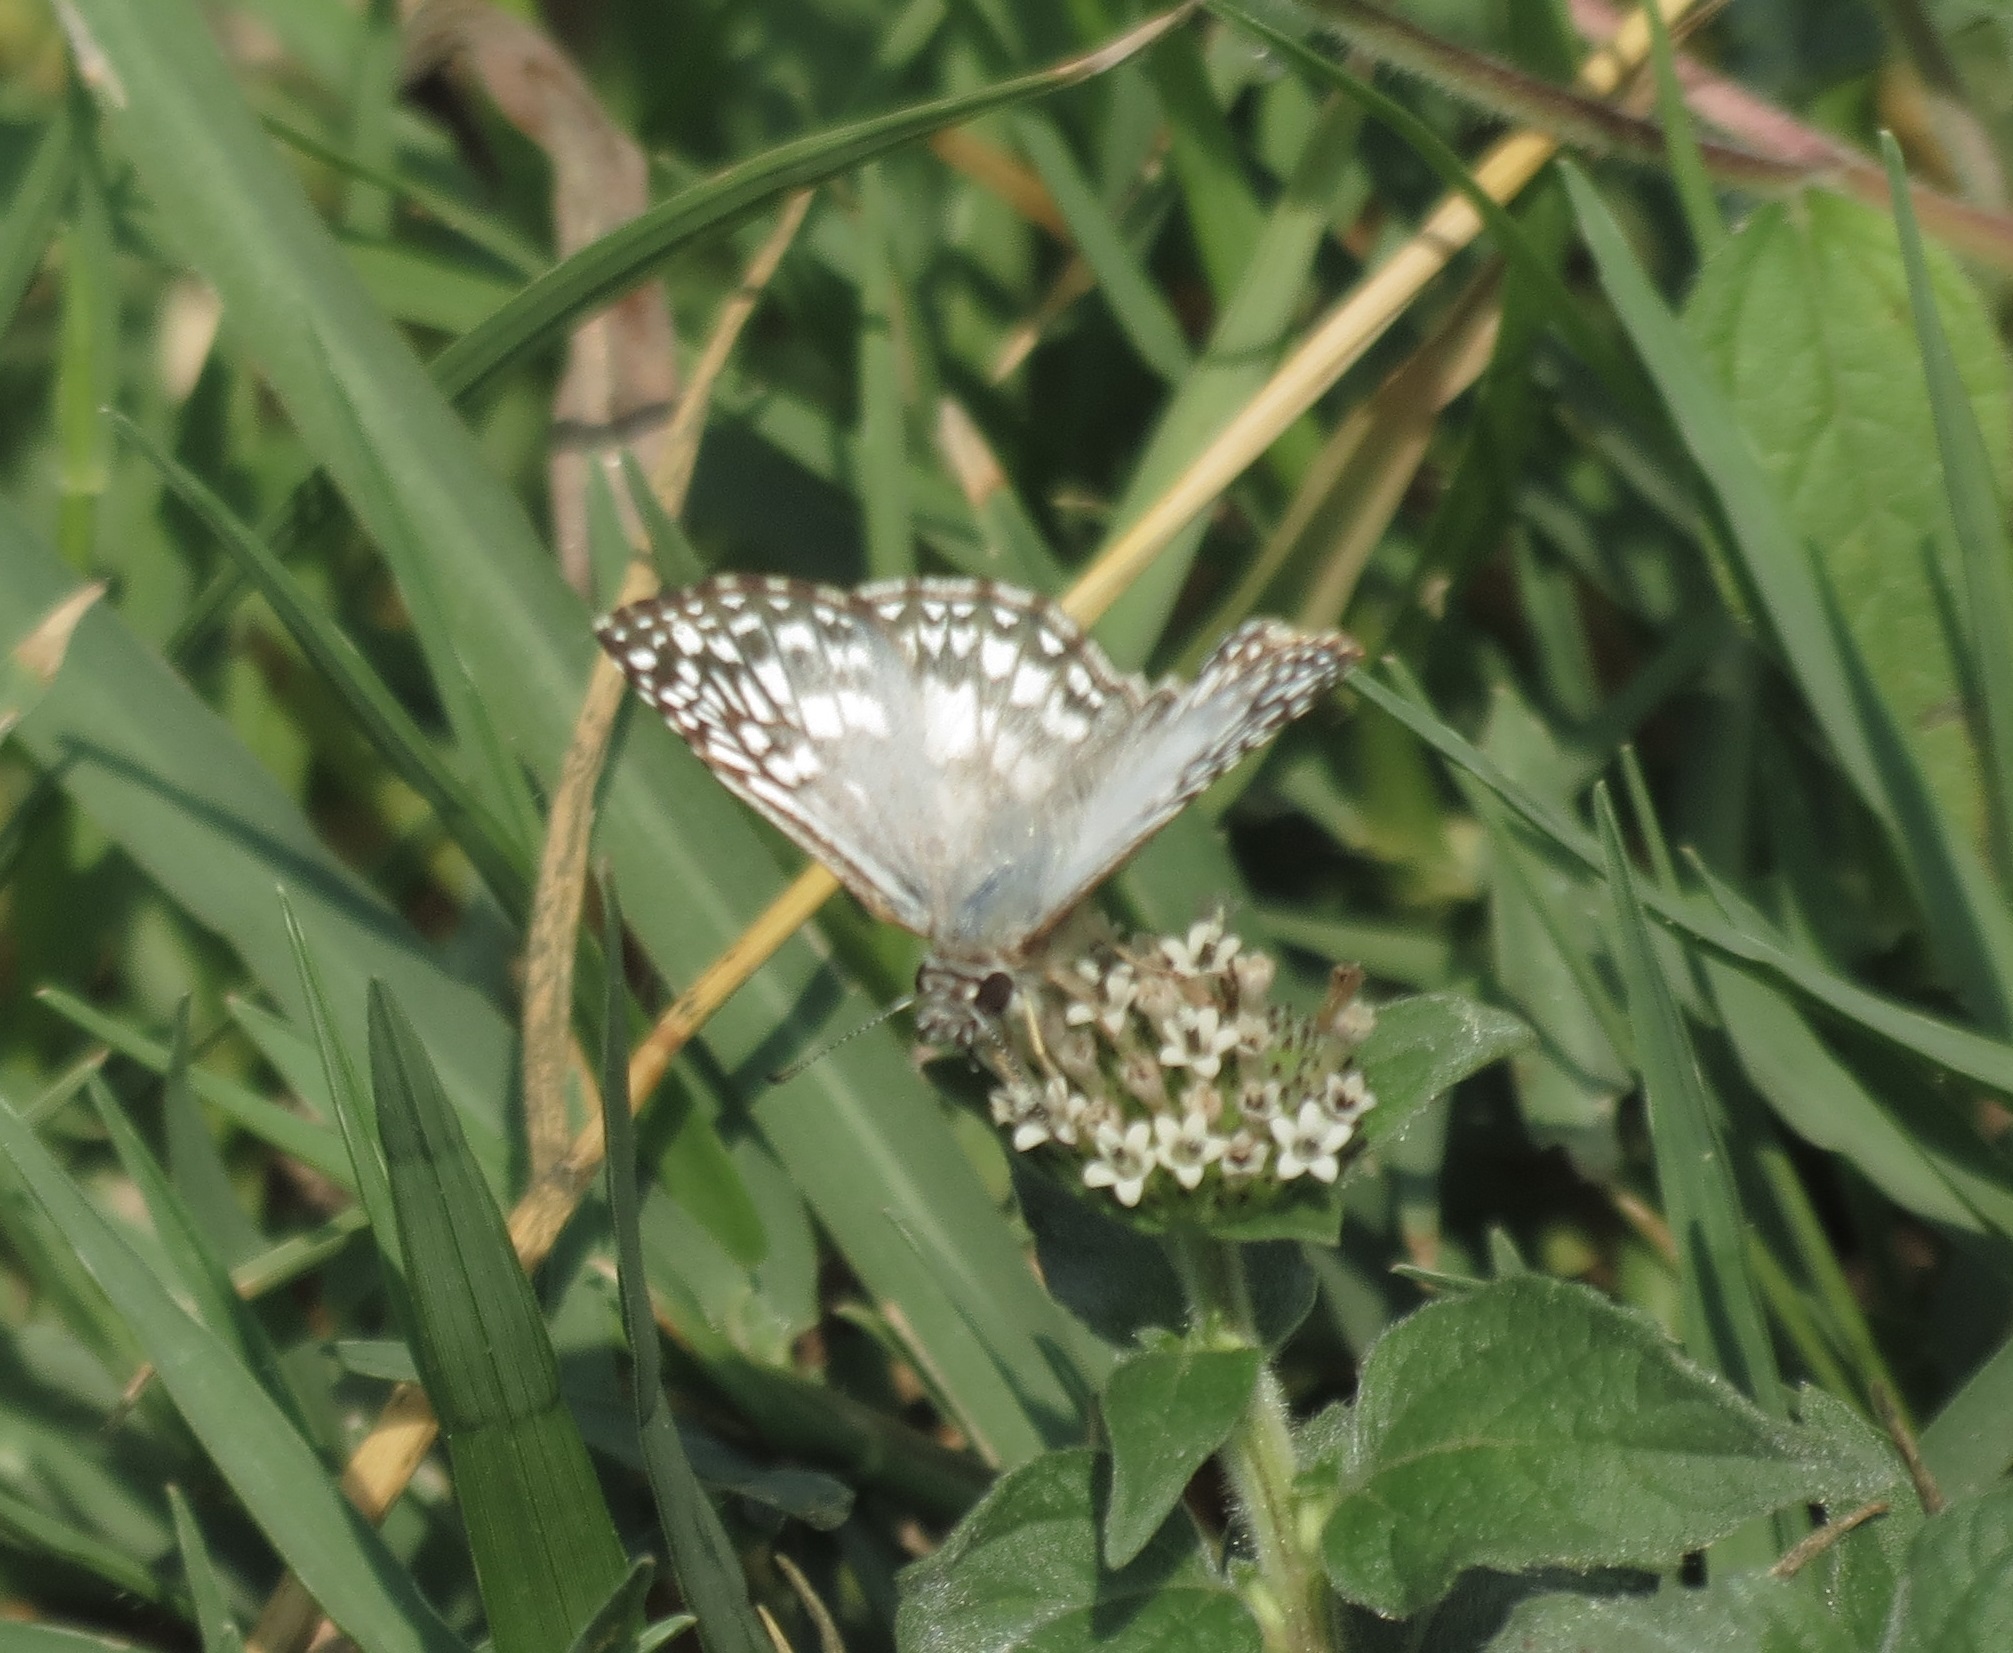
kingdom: Animalia
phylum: Arthropoda
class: Insecta
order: Lepidoptera
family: Hesperiidae
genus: Pyrgus
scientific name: Pyrgus oileus
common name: Tropical checkered-skipper
